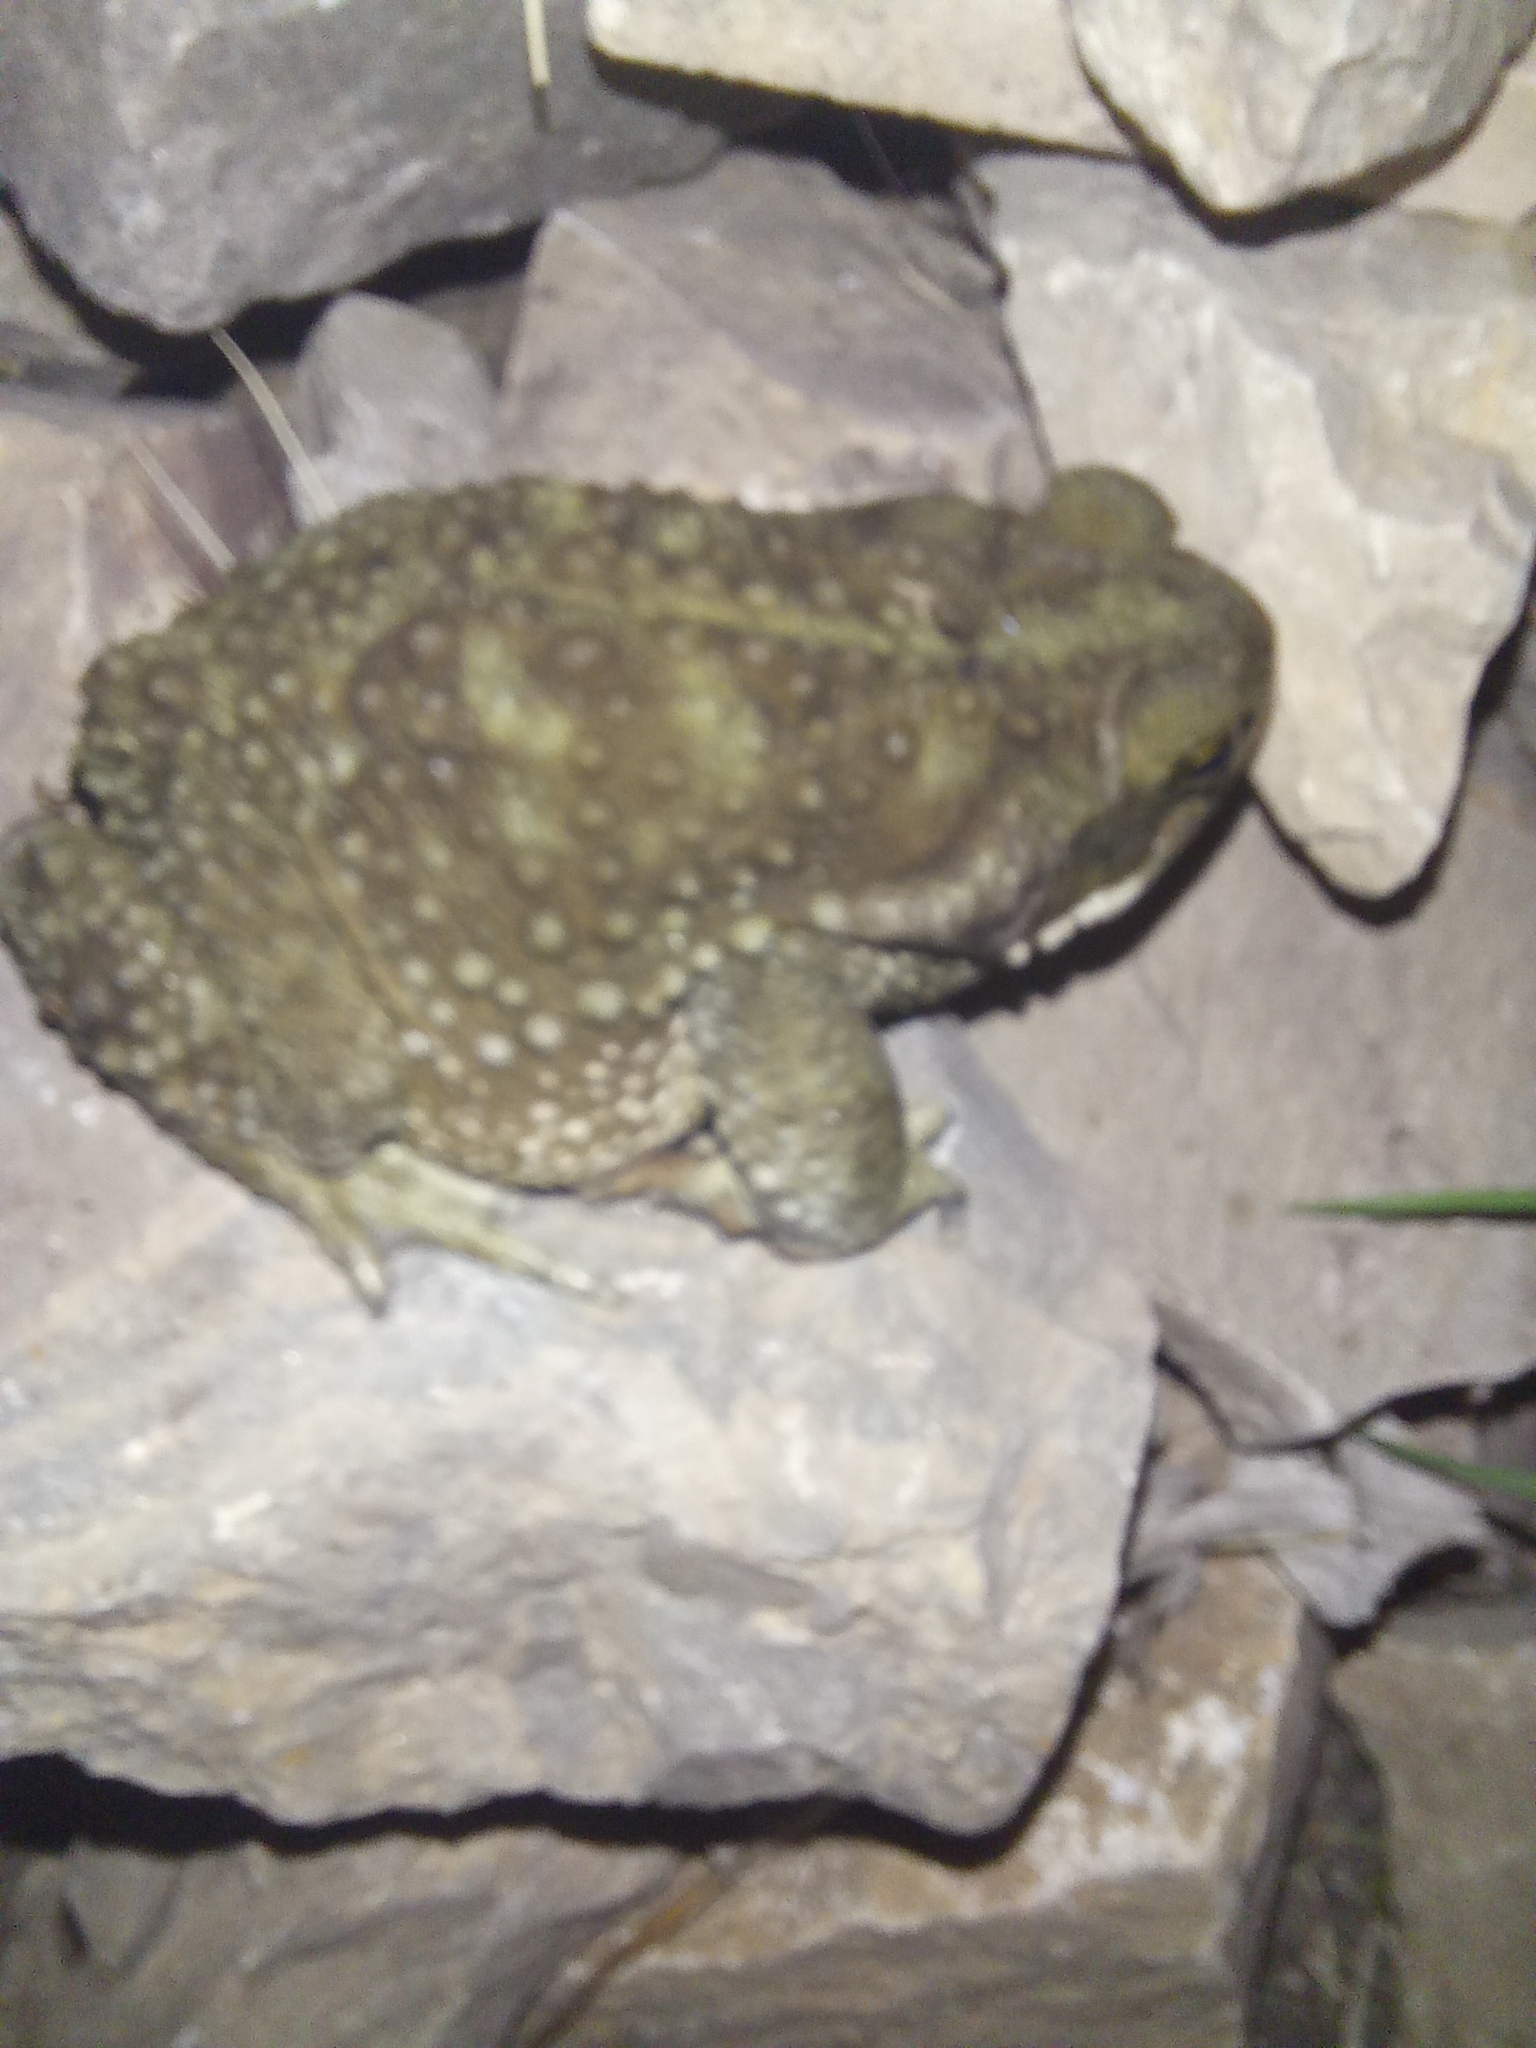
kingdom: Animalia
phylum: Chordata
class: Amphibia
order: Anura
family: Bufonidae
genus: Rhinella
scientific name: Rhinella arenarum
